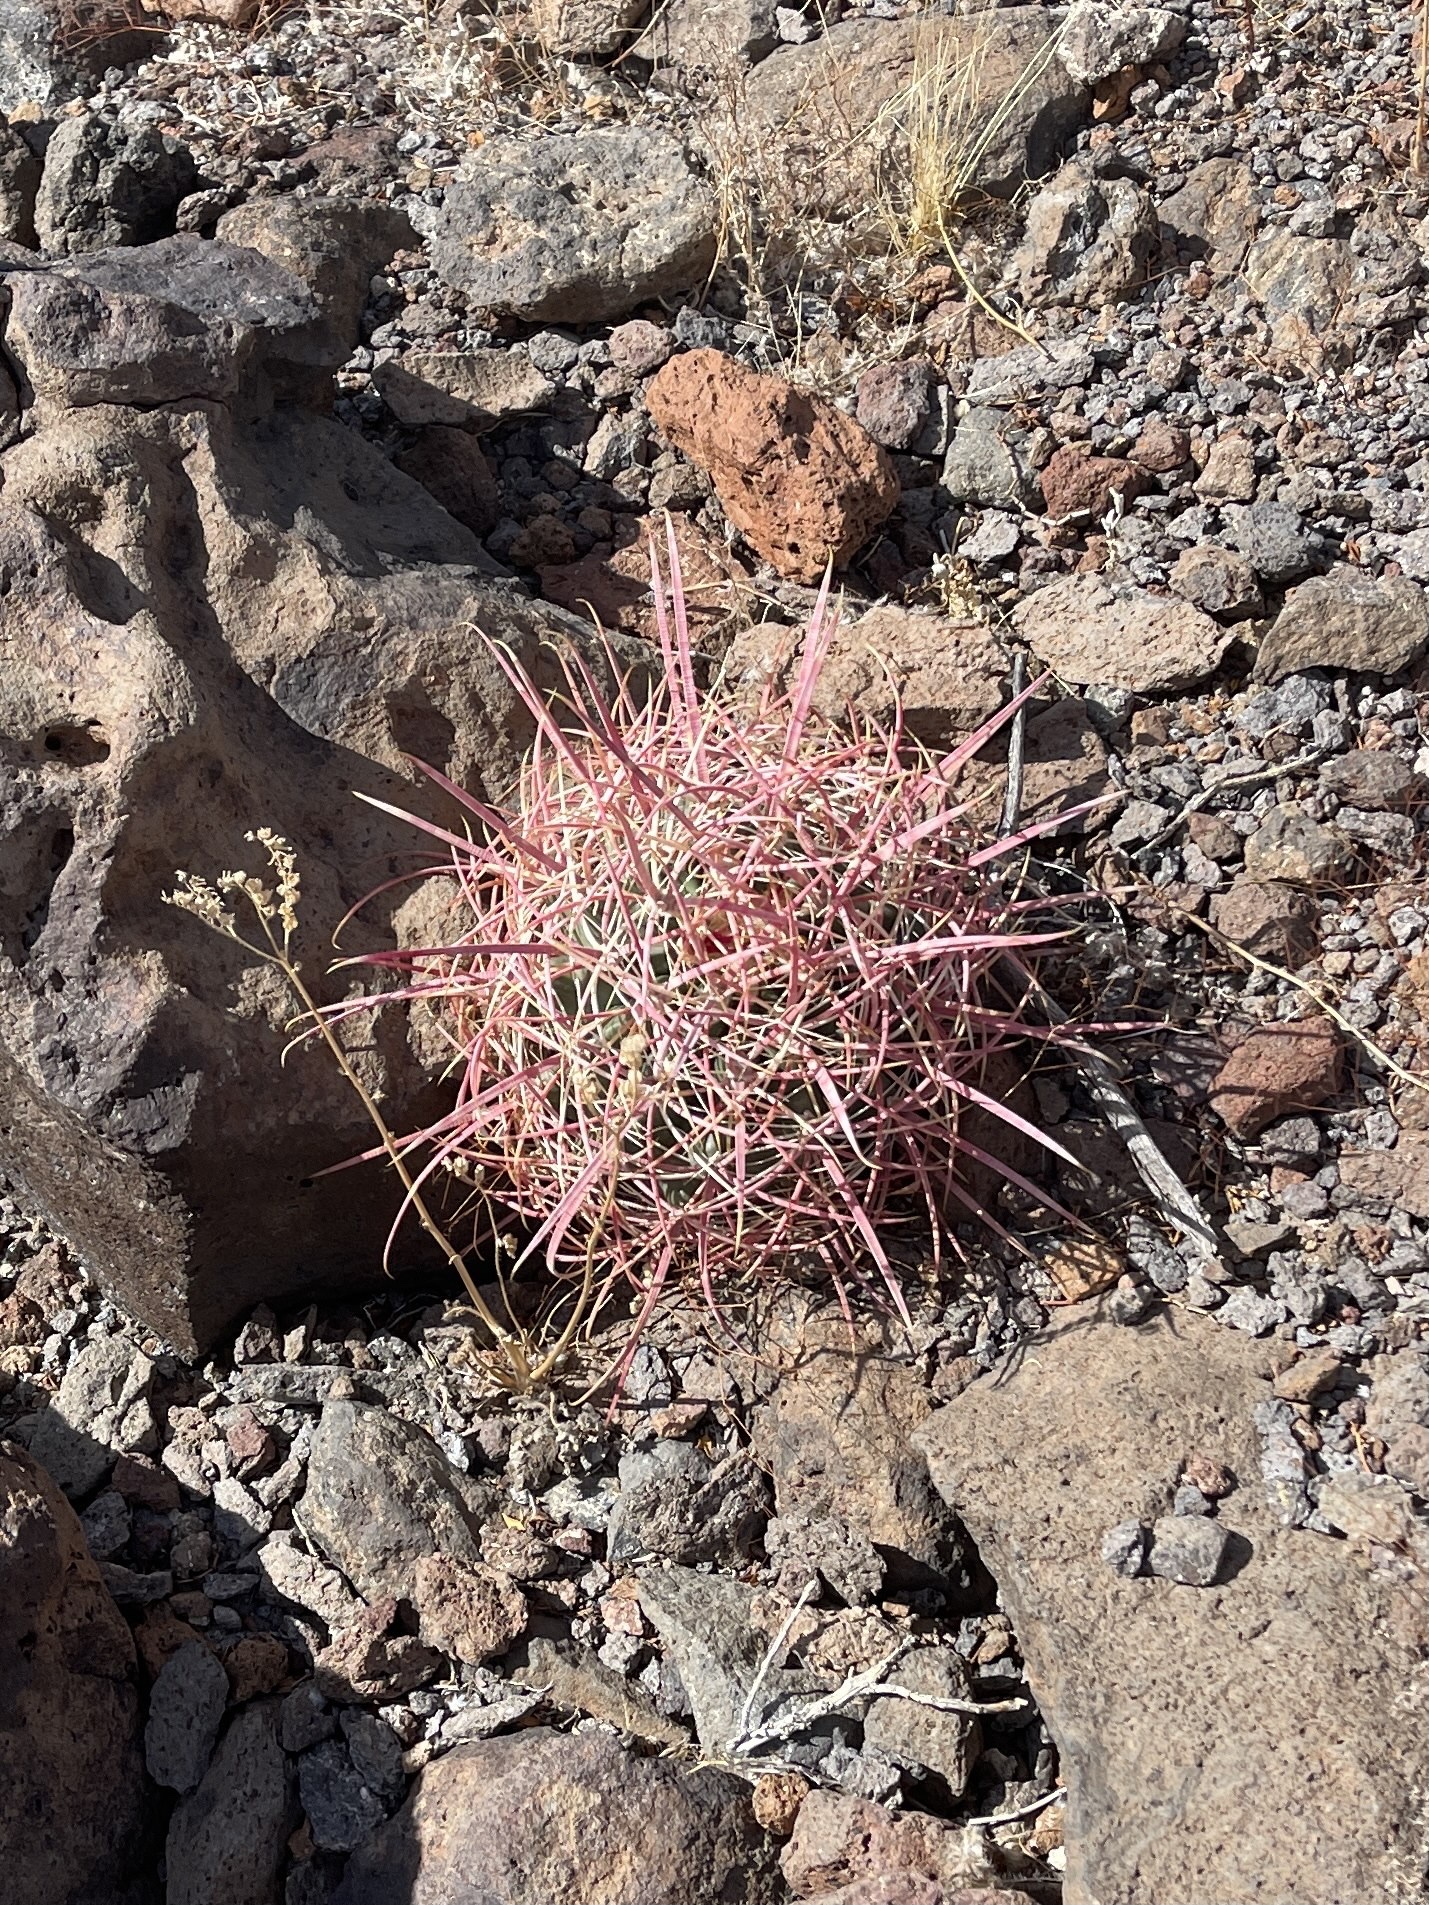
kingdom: Plantae
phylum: Tracheophyta
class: Magnoliopsida
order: Caryophyllales
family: Cactaceae
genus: Ferocactus
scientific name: Ferocactus cylindraceus
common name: California barrel cactus
